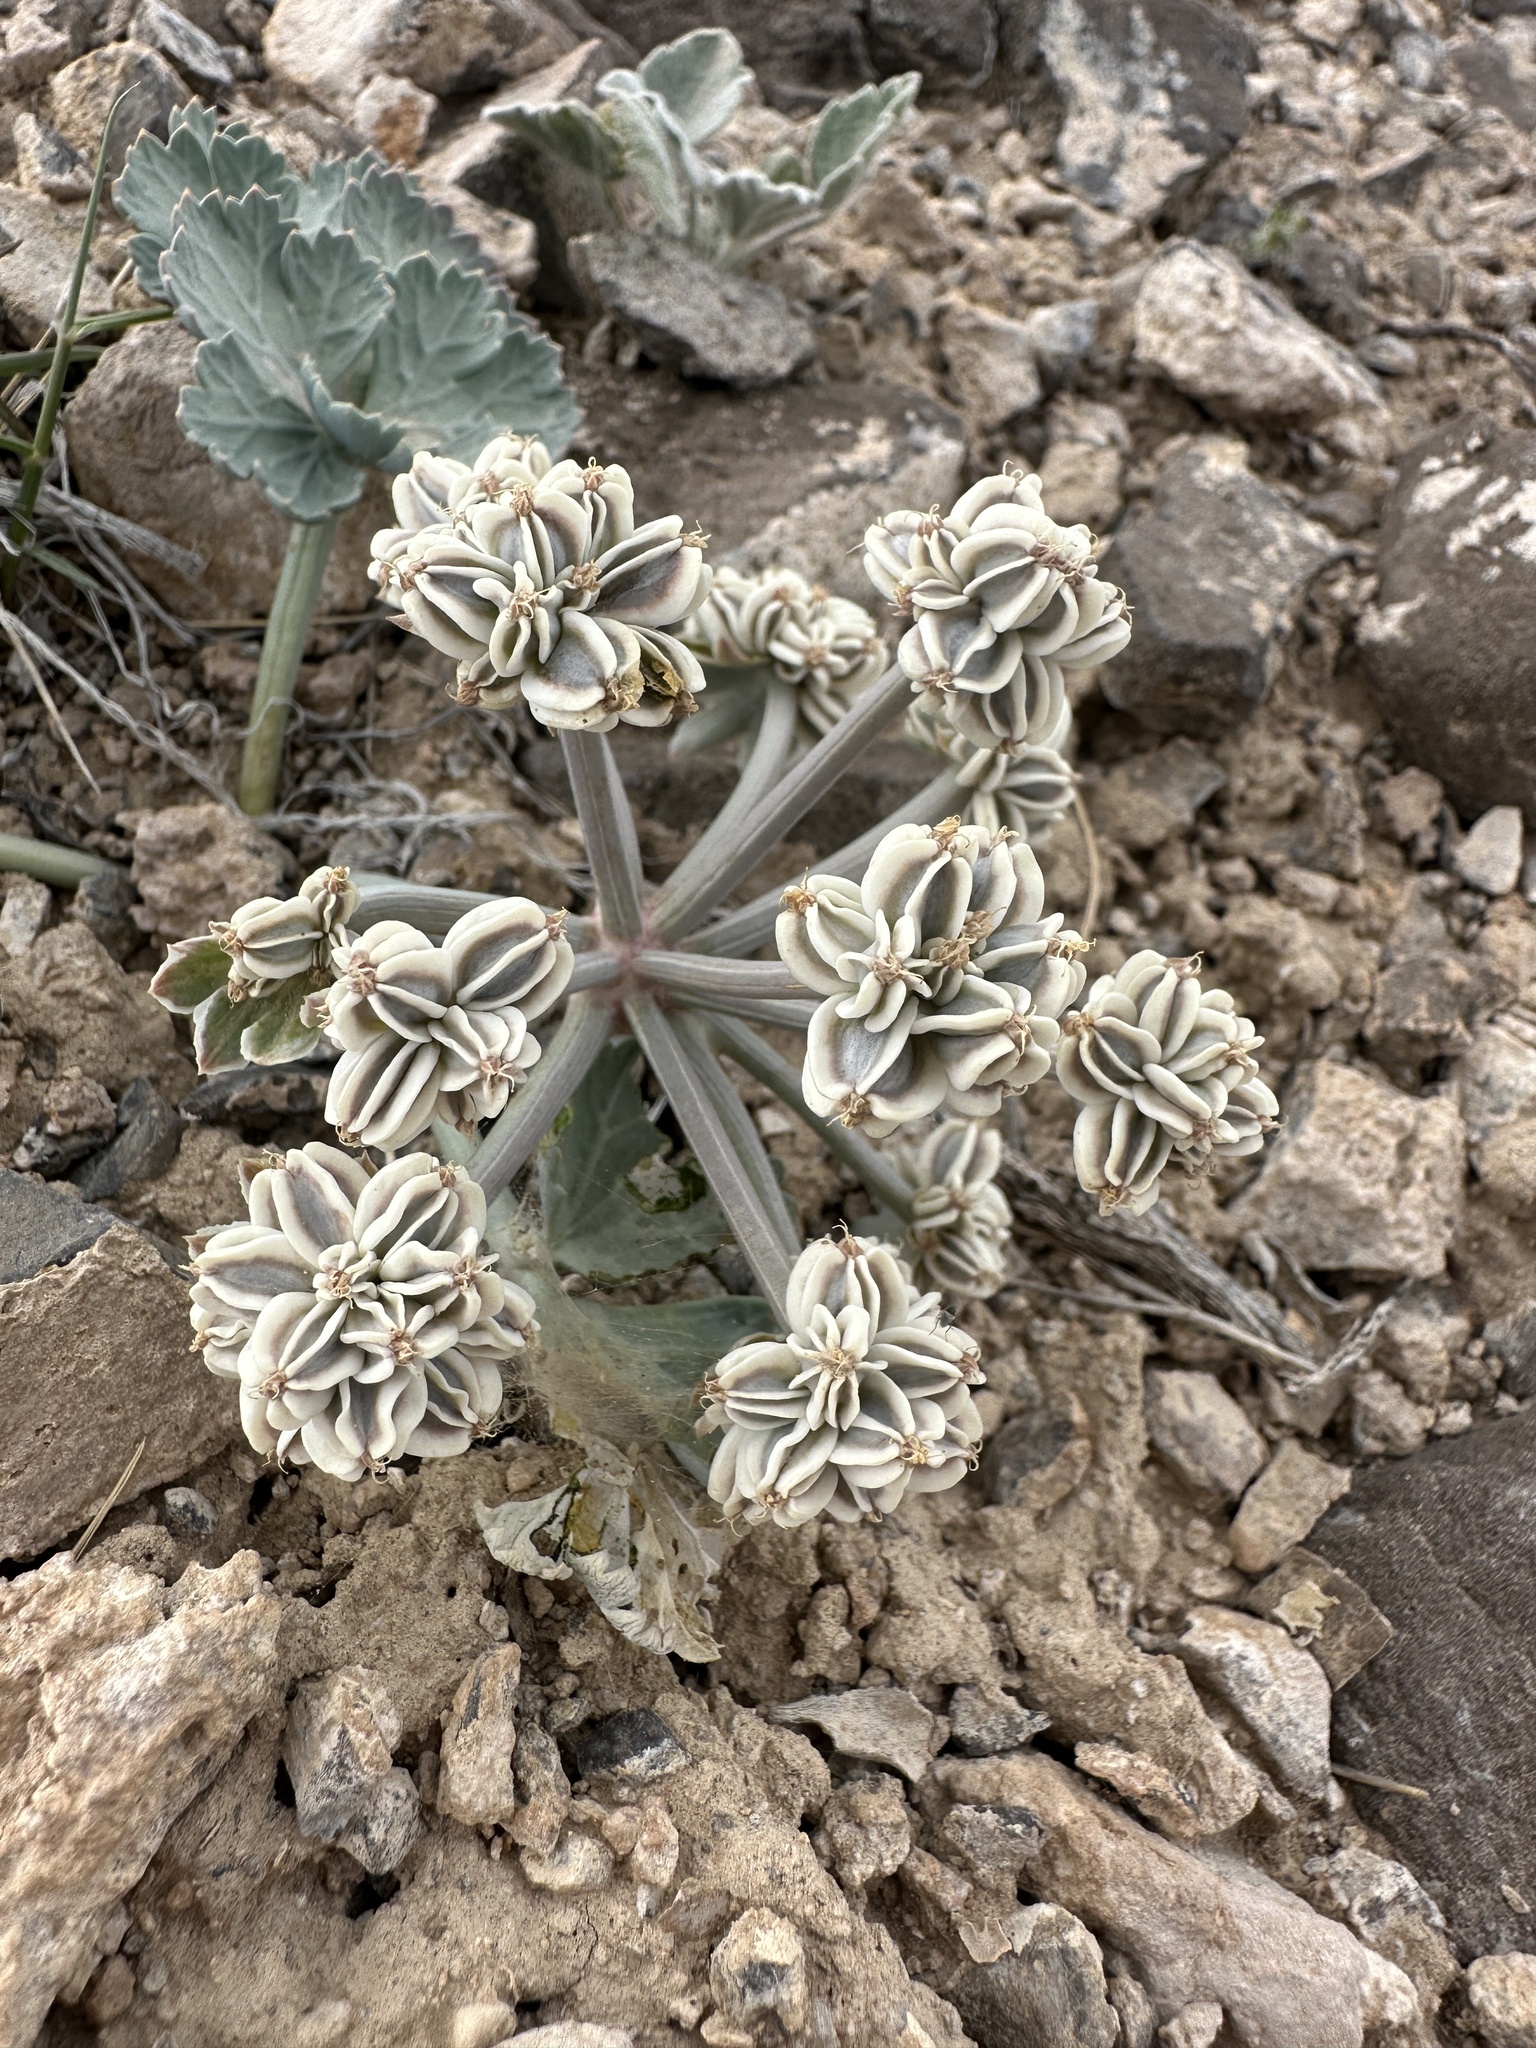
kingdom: Plantae
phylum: Tracheophyta
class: Magnoliopsida
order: Apiales
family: Apiaceae
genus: Aulospermum
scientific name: Aulospermum basalticum
